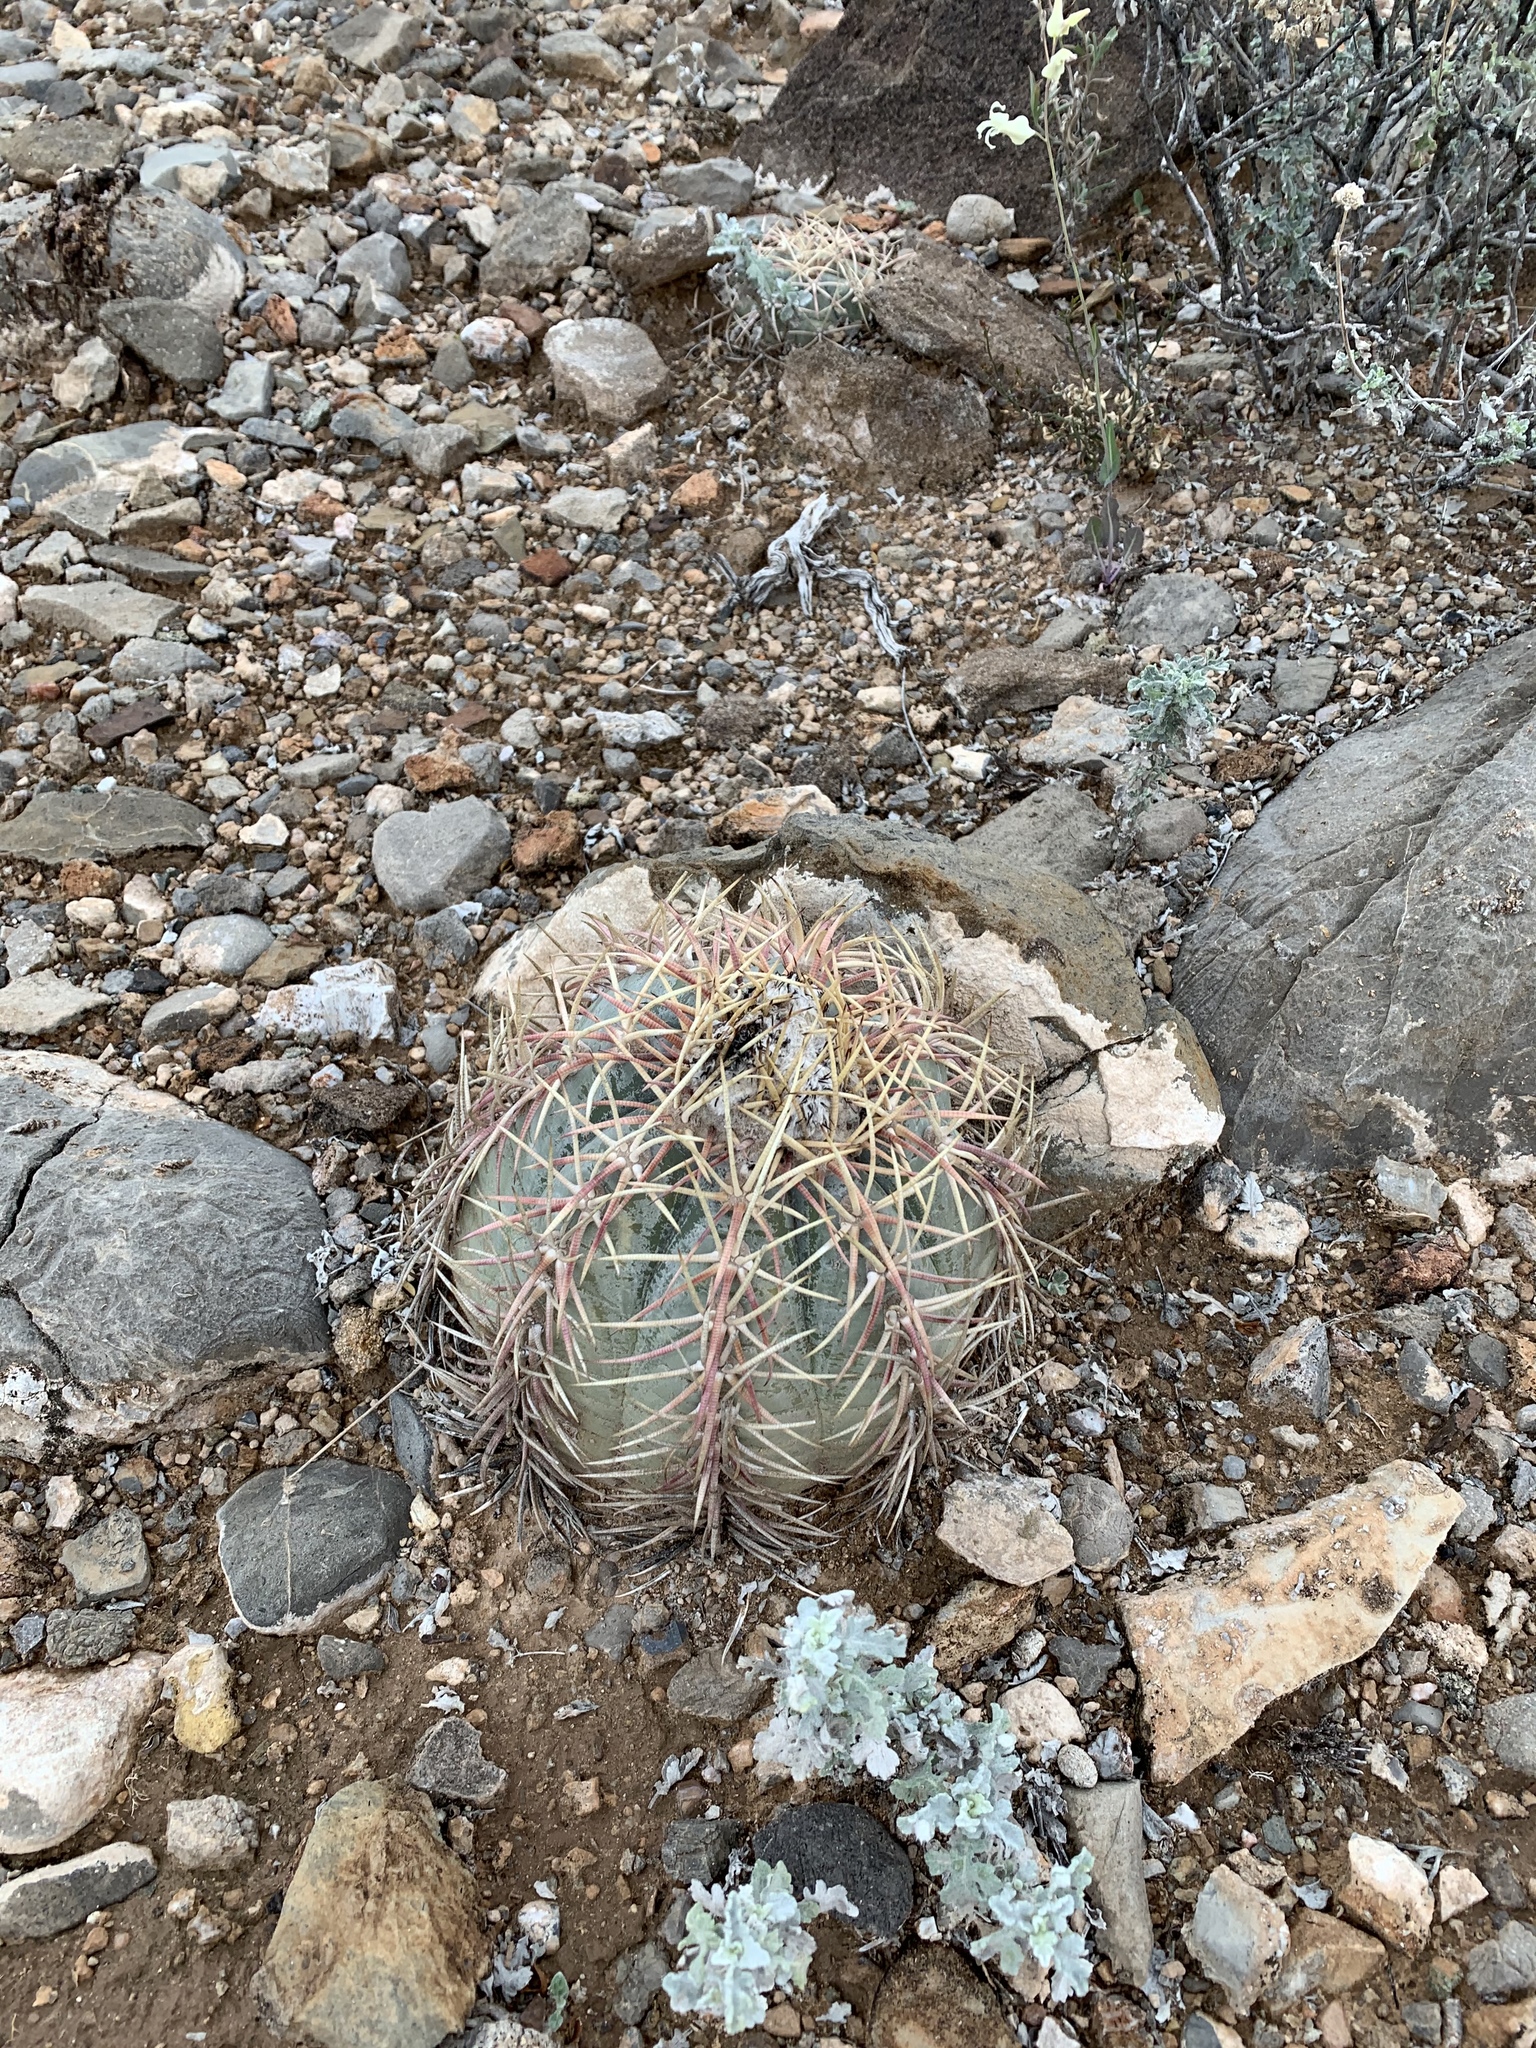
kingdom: Plantae
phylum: Tracheophyta
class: Magnoliopsida
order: Caryophyllales
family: Cactaceae
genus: Echinocactus
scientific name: Echinocactus horizonthalonius
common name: Devilshead
